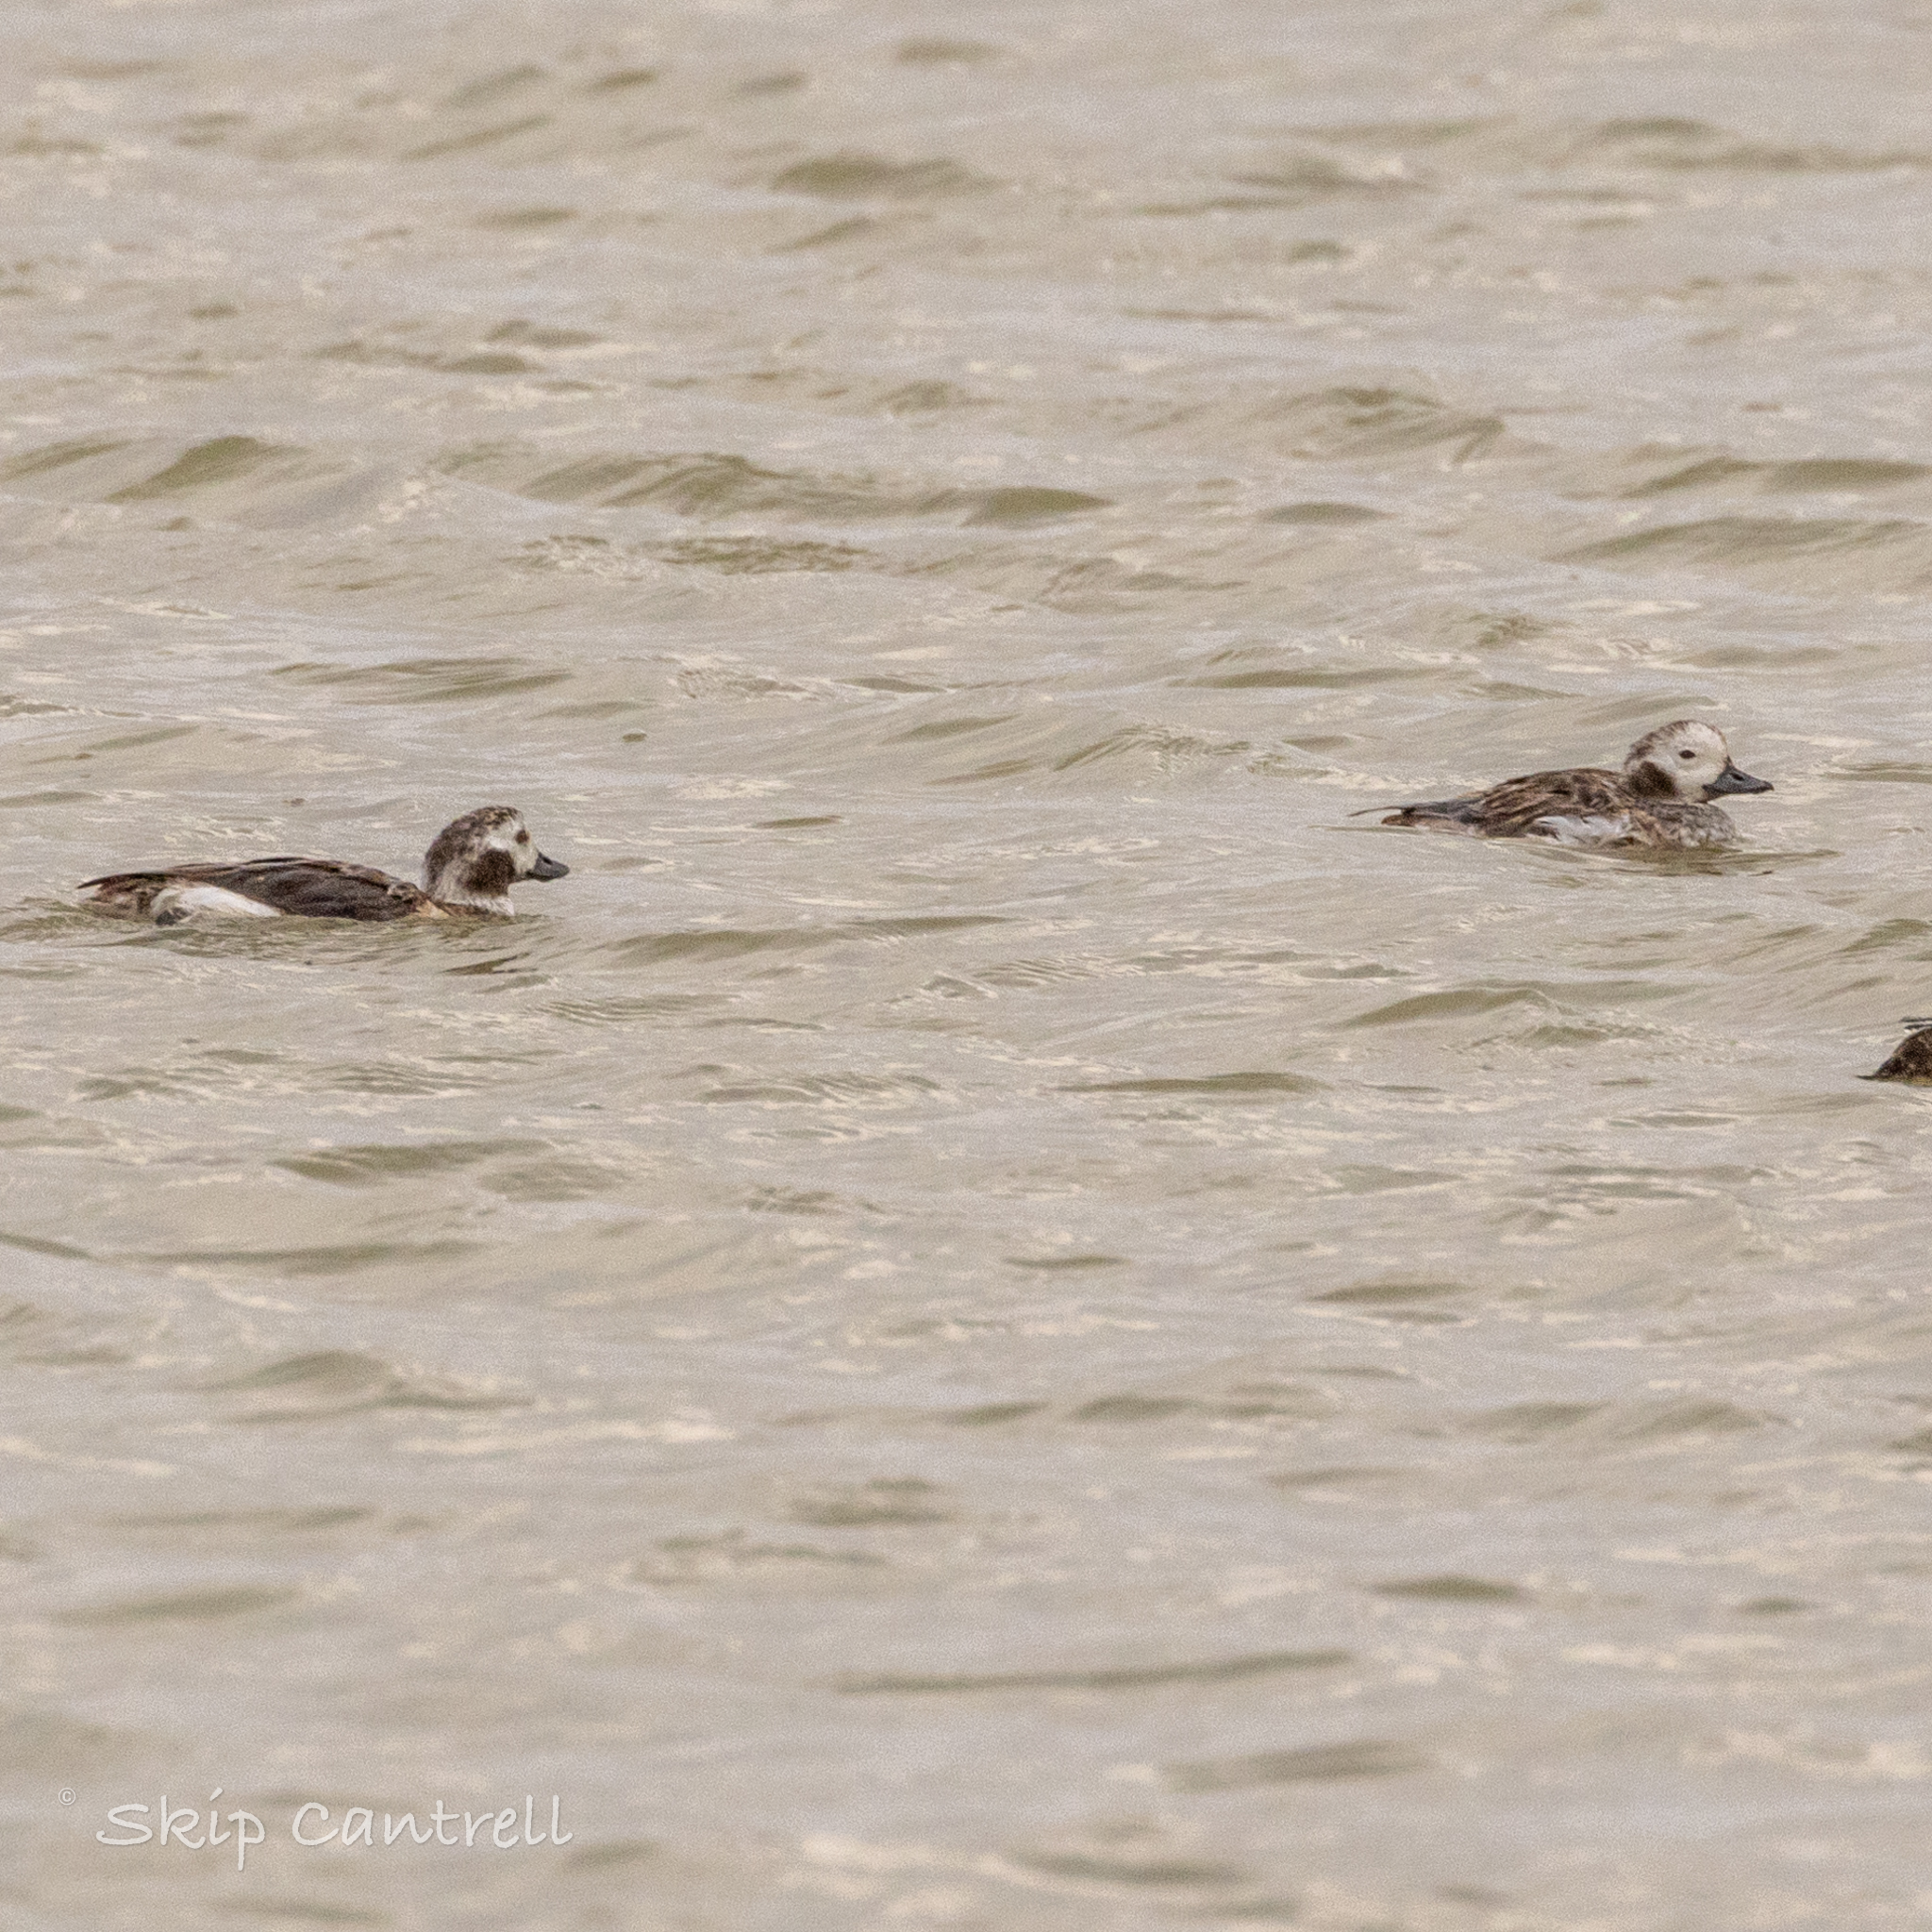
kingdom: Animalia
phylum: Chordata
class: Aves
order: Anseriformes
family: Anatidae
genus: Clangula
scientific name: Clangula hyemalis
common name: Long-tailed duck
